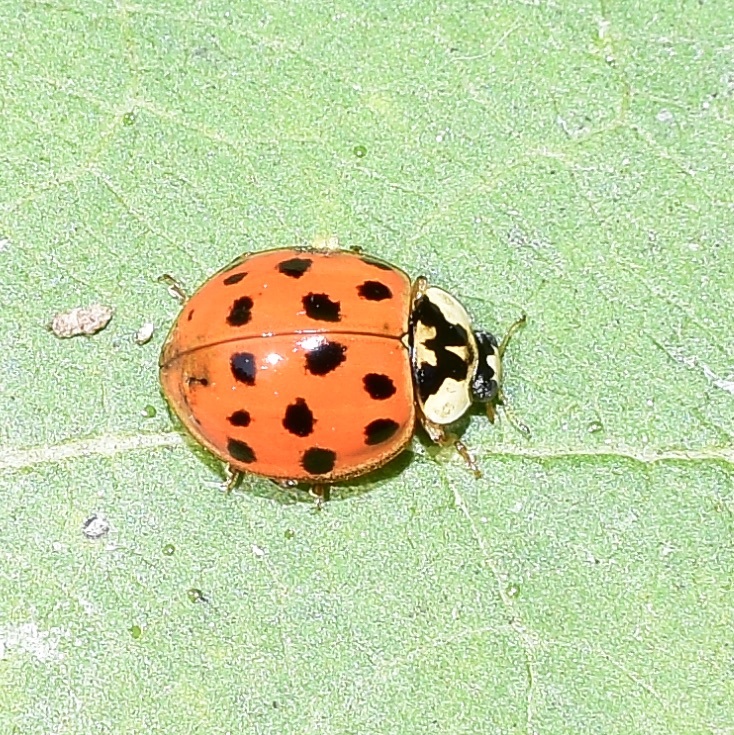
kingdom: Animalia
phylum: Arthropoda
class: Insecta
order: Coleoptera
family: Coccinellidae
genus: Harmonia
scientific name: Harmonia axyridis
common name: Harlequin ladybird
